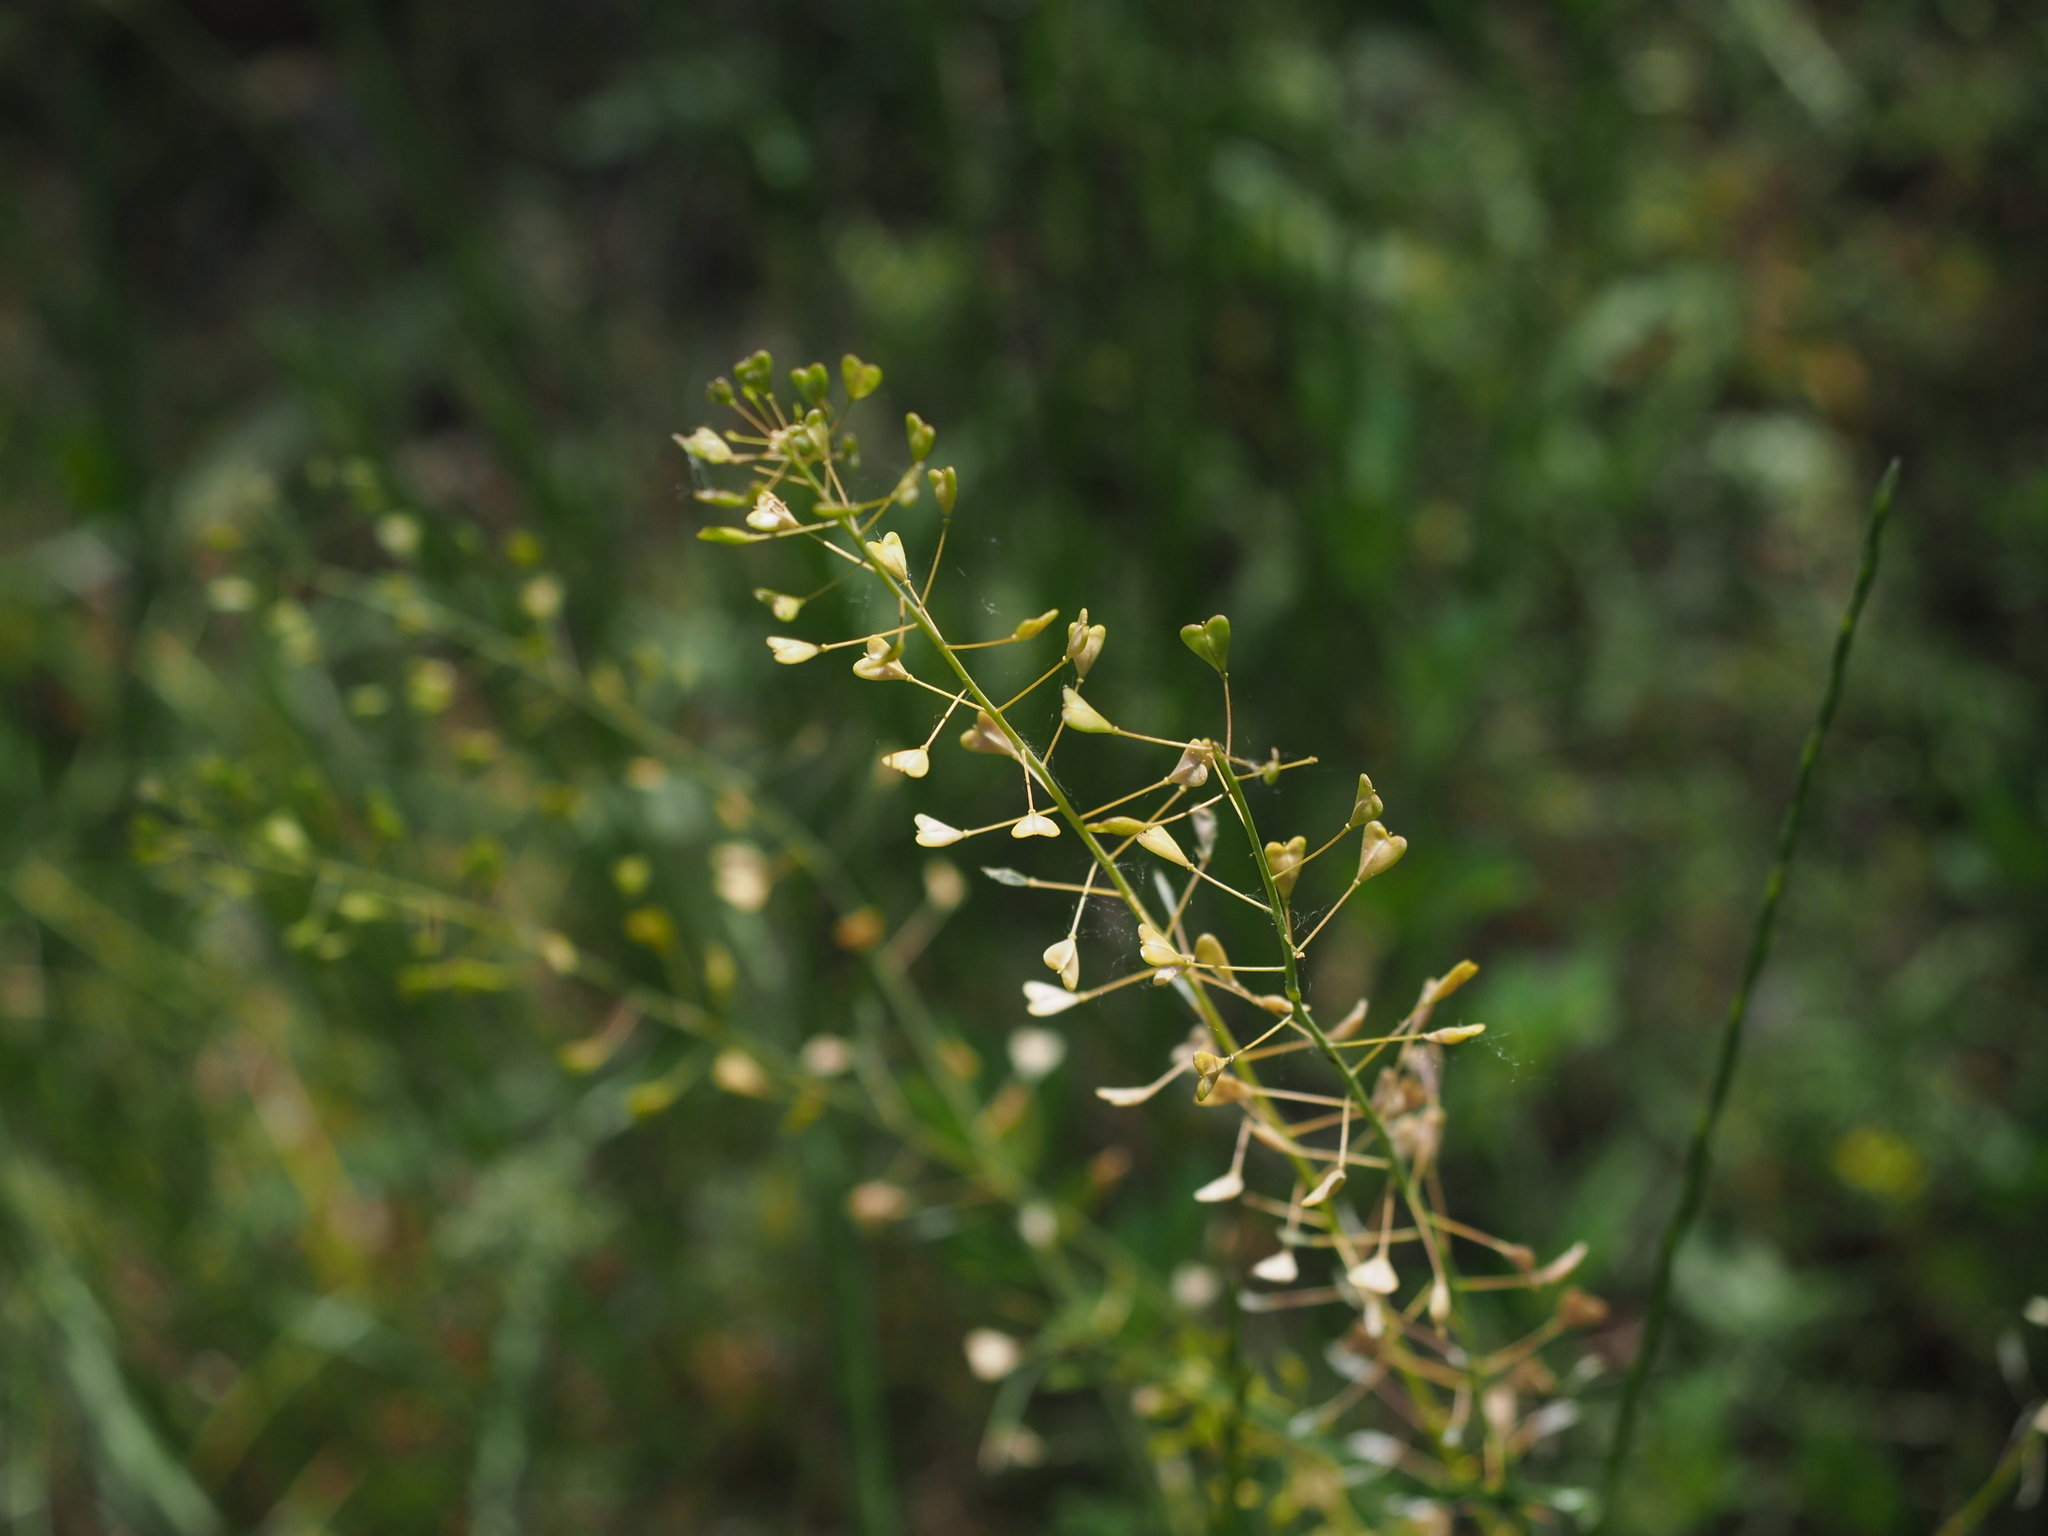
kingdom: Plantae
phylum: Tracheophyta
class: Magnoliopsida
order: Brassicales
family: Brassicaceae
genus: Capsella
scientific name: Capsella bursa-pastoris
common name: Shepherd's purse
